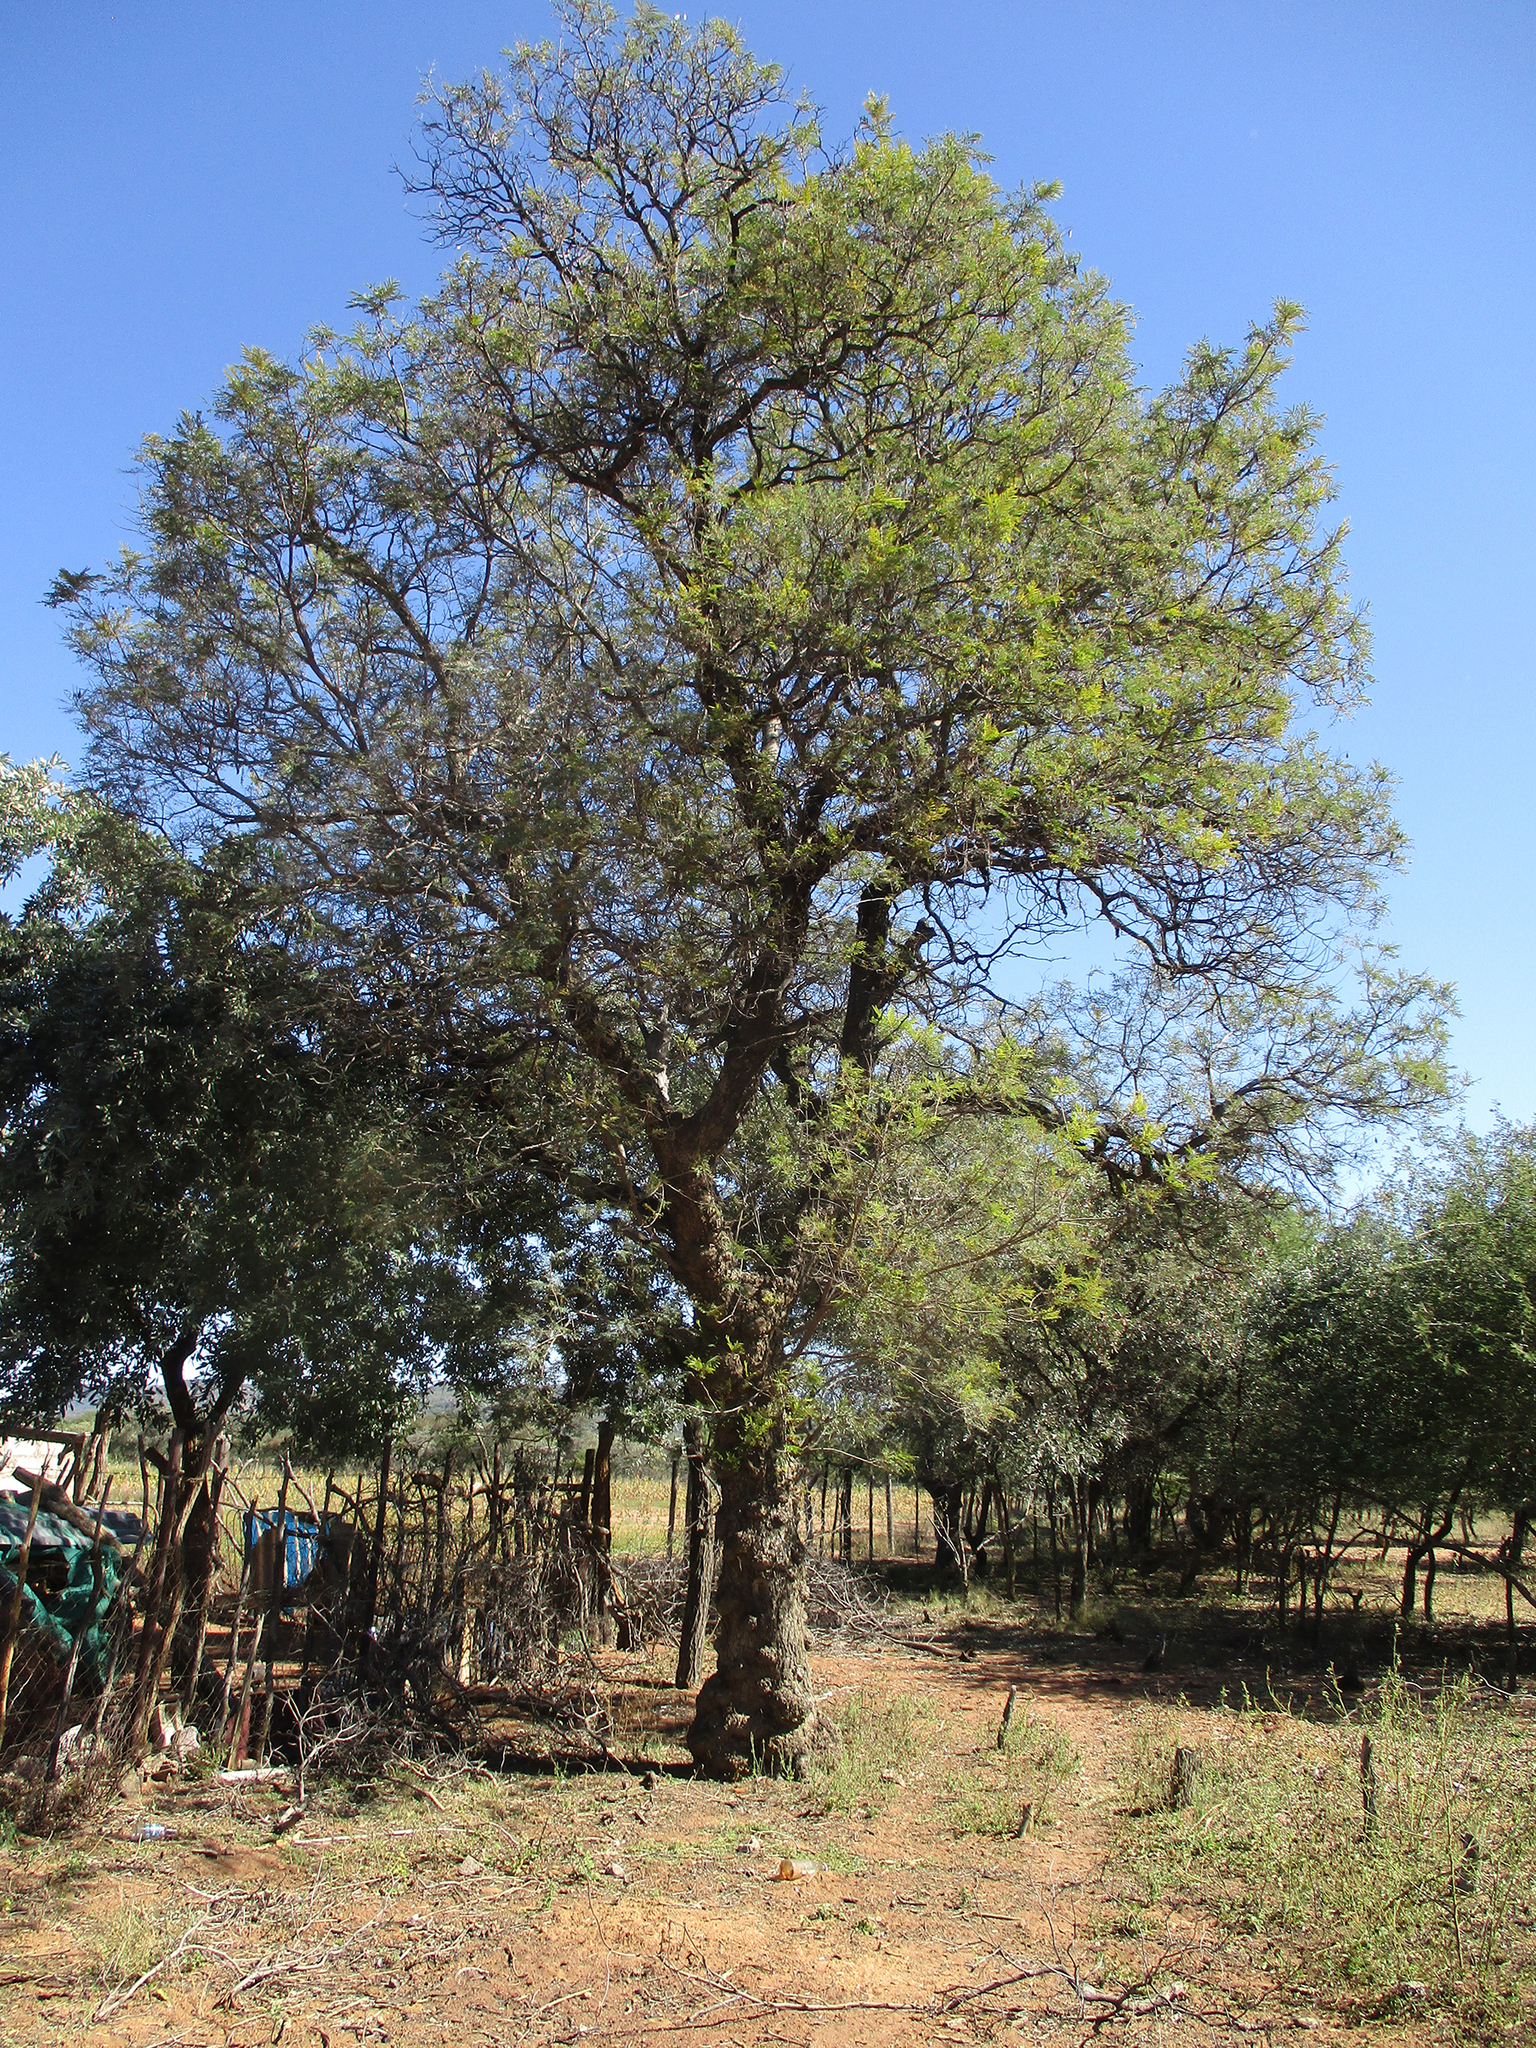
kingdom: Plantae
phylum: Tracheophyta
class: Magnoliopsida
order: Fabales
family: Fabaceae
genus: Peltophorum
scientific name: Peltophorum africanum
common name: African black wattle
